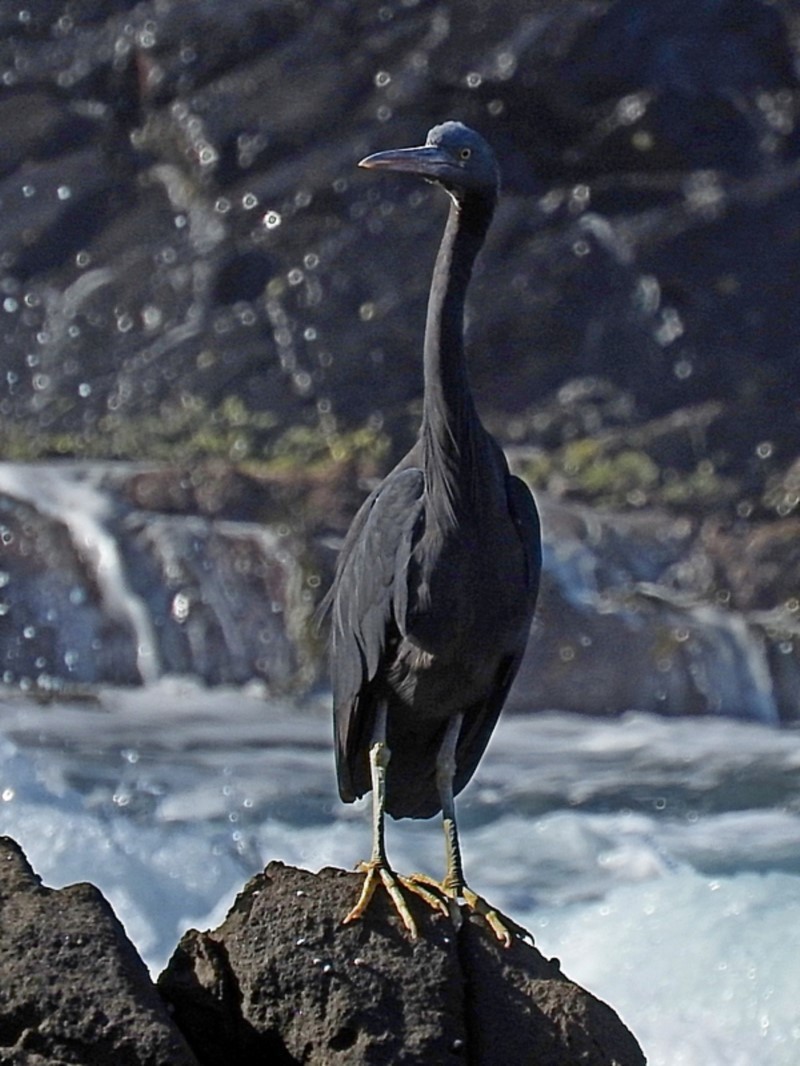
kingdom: Animalia
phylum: Chordata
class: Aves
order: Pelecaniformes
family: Ardeidae
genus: Egretta
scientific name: Egretta sacra
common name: Pacific reef heron
